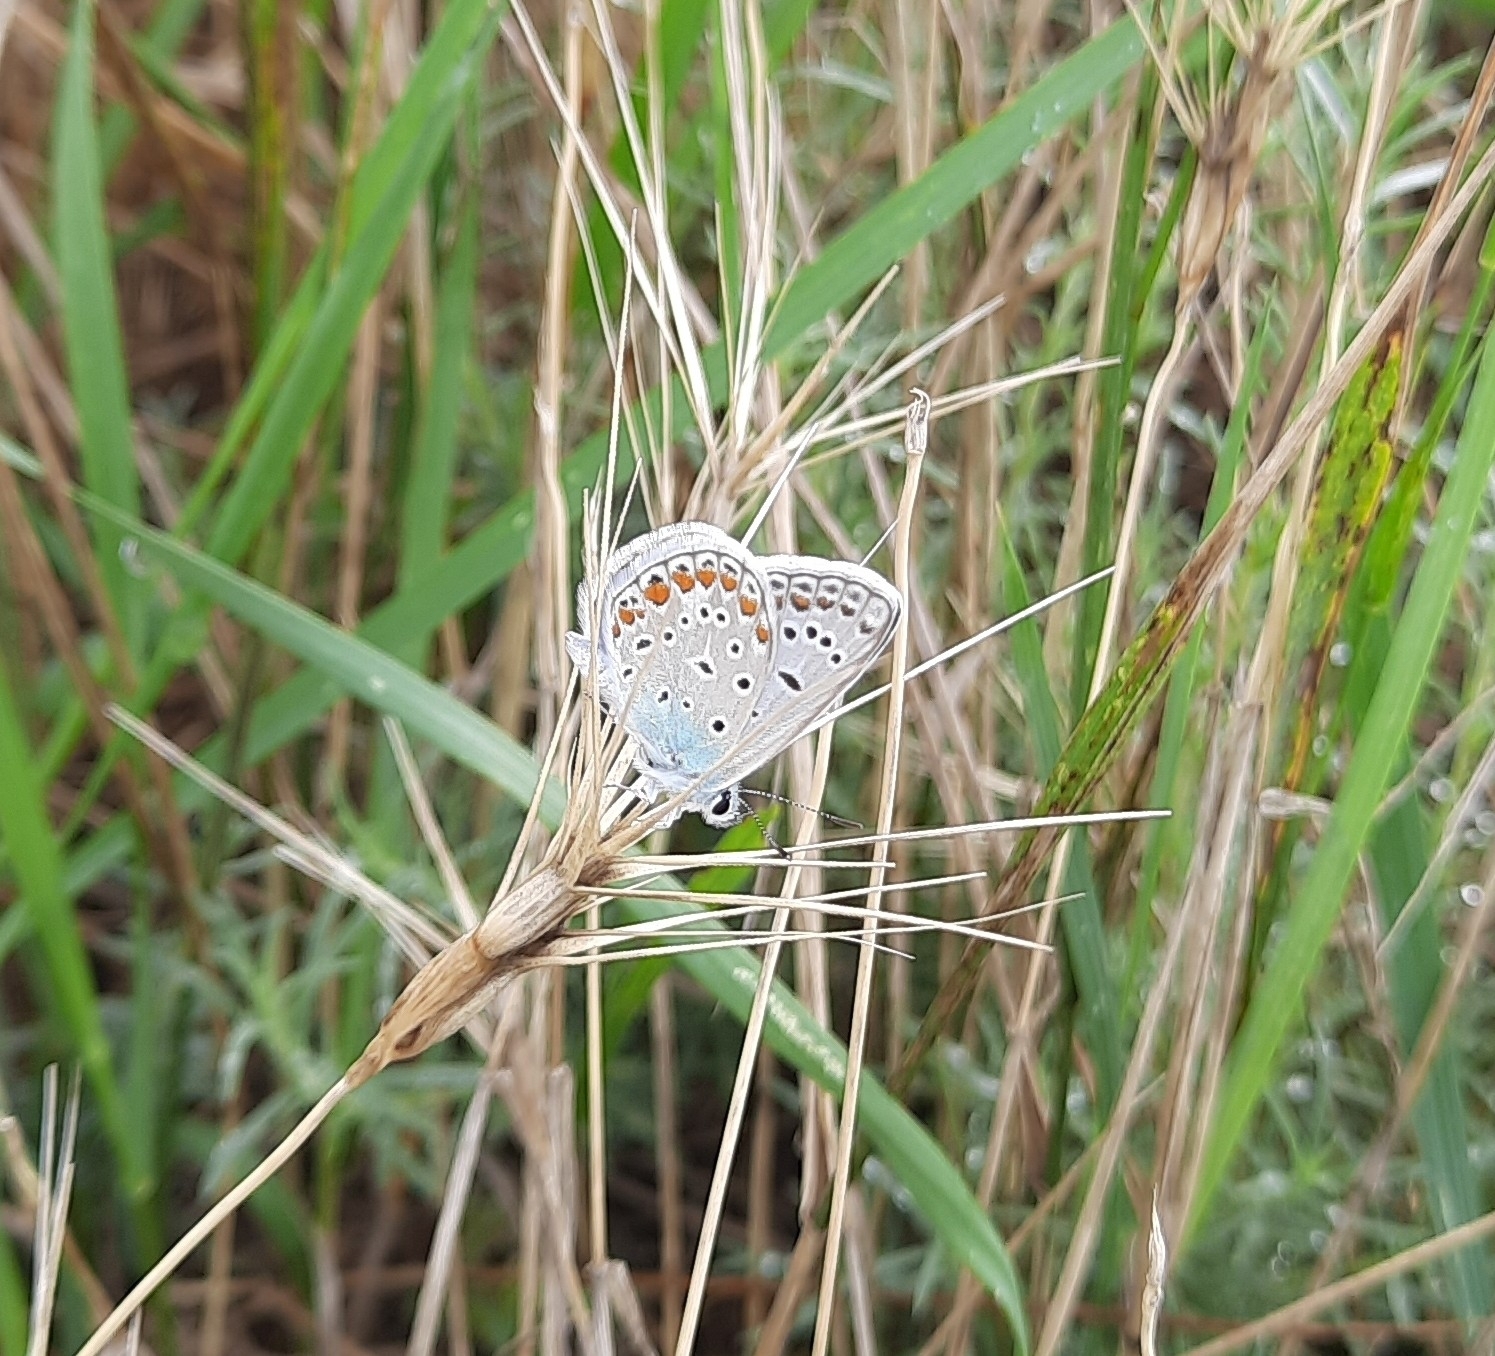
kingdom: Animalia
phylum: Arthropoda
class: Insecta
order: Lepidoptera
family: Lycaenidae
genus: Polyommatus
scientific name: Polyommatus icarus
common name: Common blue
